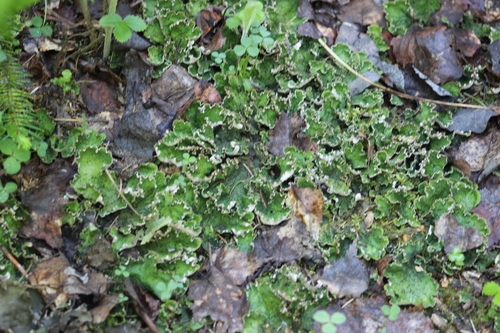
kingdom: Fungi
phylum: Ascomycota
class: Lecanoromycetes
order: Peltigerales
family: Peltigeraceae
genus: Peltigera
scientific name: Peltigera leucophlebia
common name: Ruffled freckle pelt lichen
